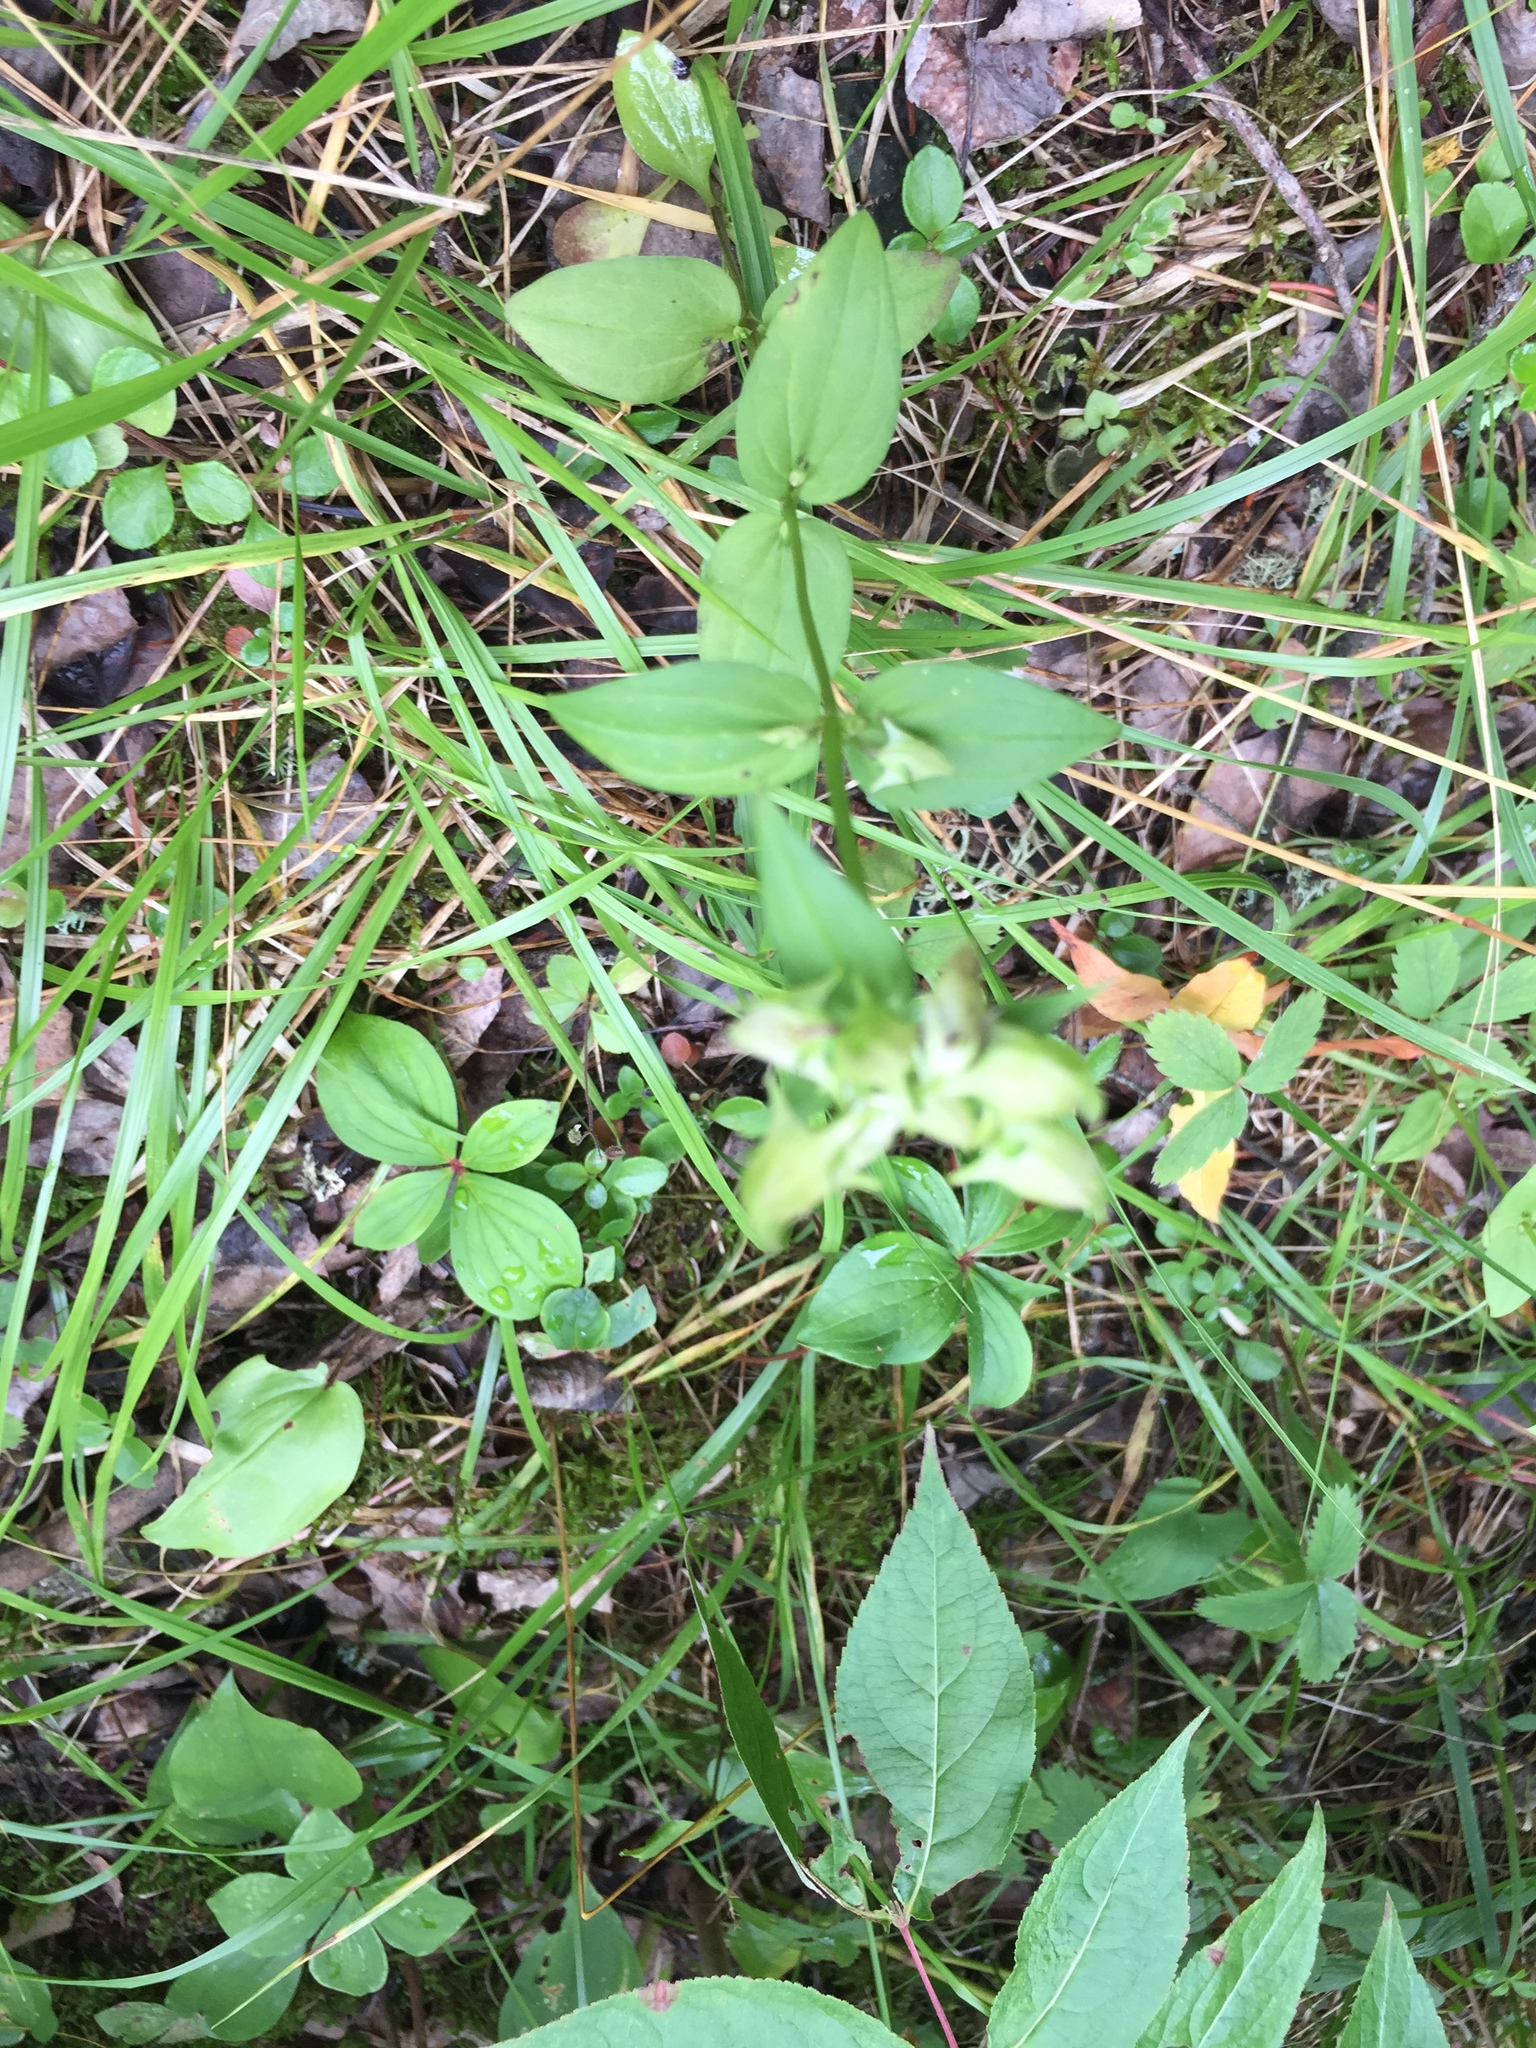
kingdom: Plantae
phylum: Tracheophyta
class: Magnoliopsida
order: Gentianales
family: Gentianaceae
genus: Halenia
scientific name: Halenia deflexa
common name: American spurred gentian
